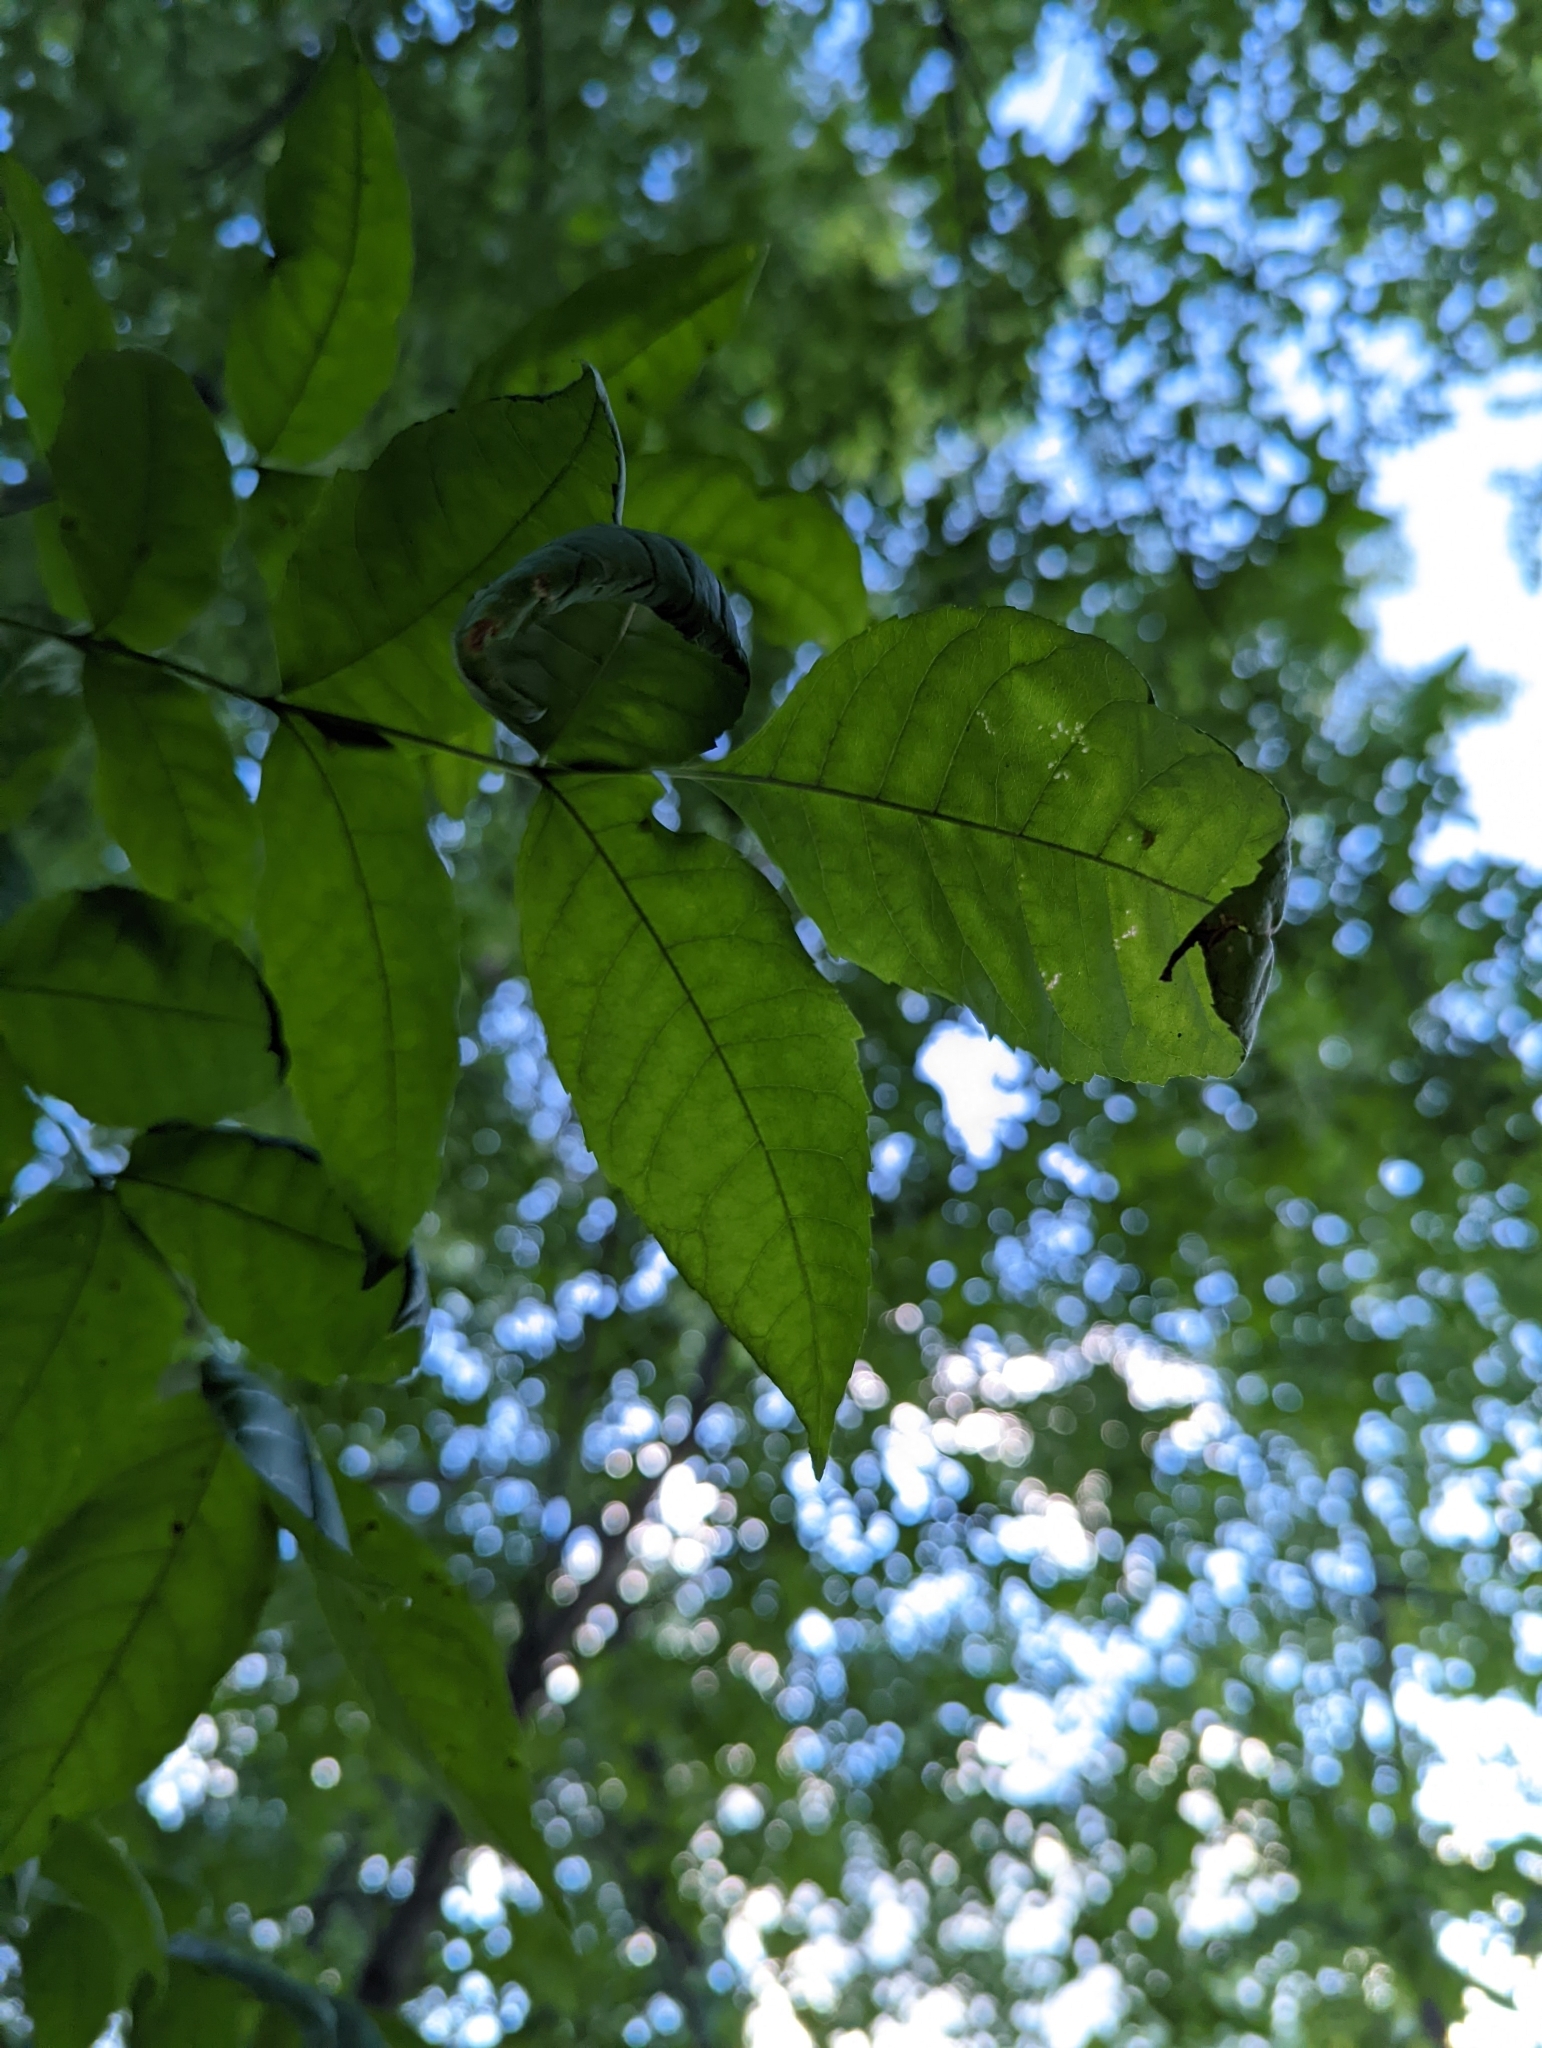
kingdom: Animalia
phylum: Arthropoda
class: Arachnida
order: Trombidiformes
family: Eriophyidae
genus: Aceria
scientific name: Aceria fraxinicola
